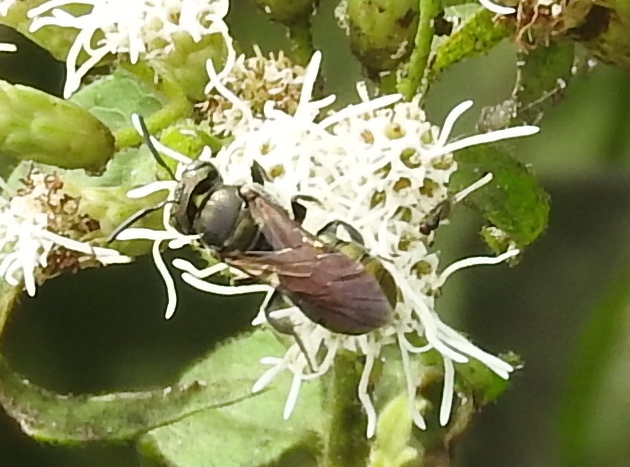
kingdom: Animalia
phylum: Arthropoda
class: Insecta
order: Hymenoptera
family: Apidae
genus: Ceratina
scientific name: Ceratina
